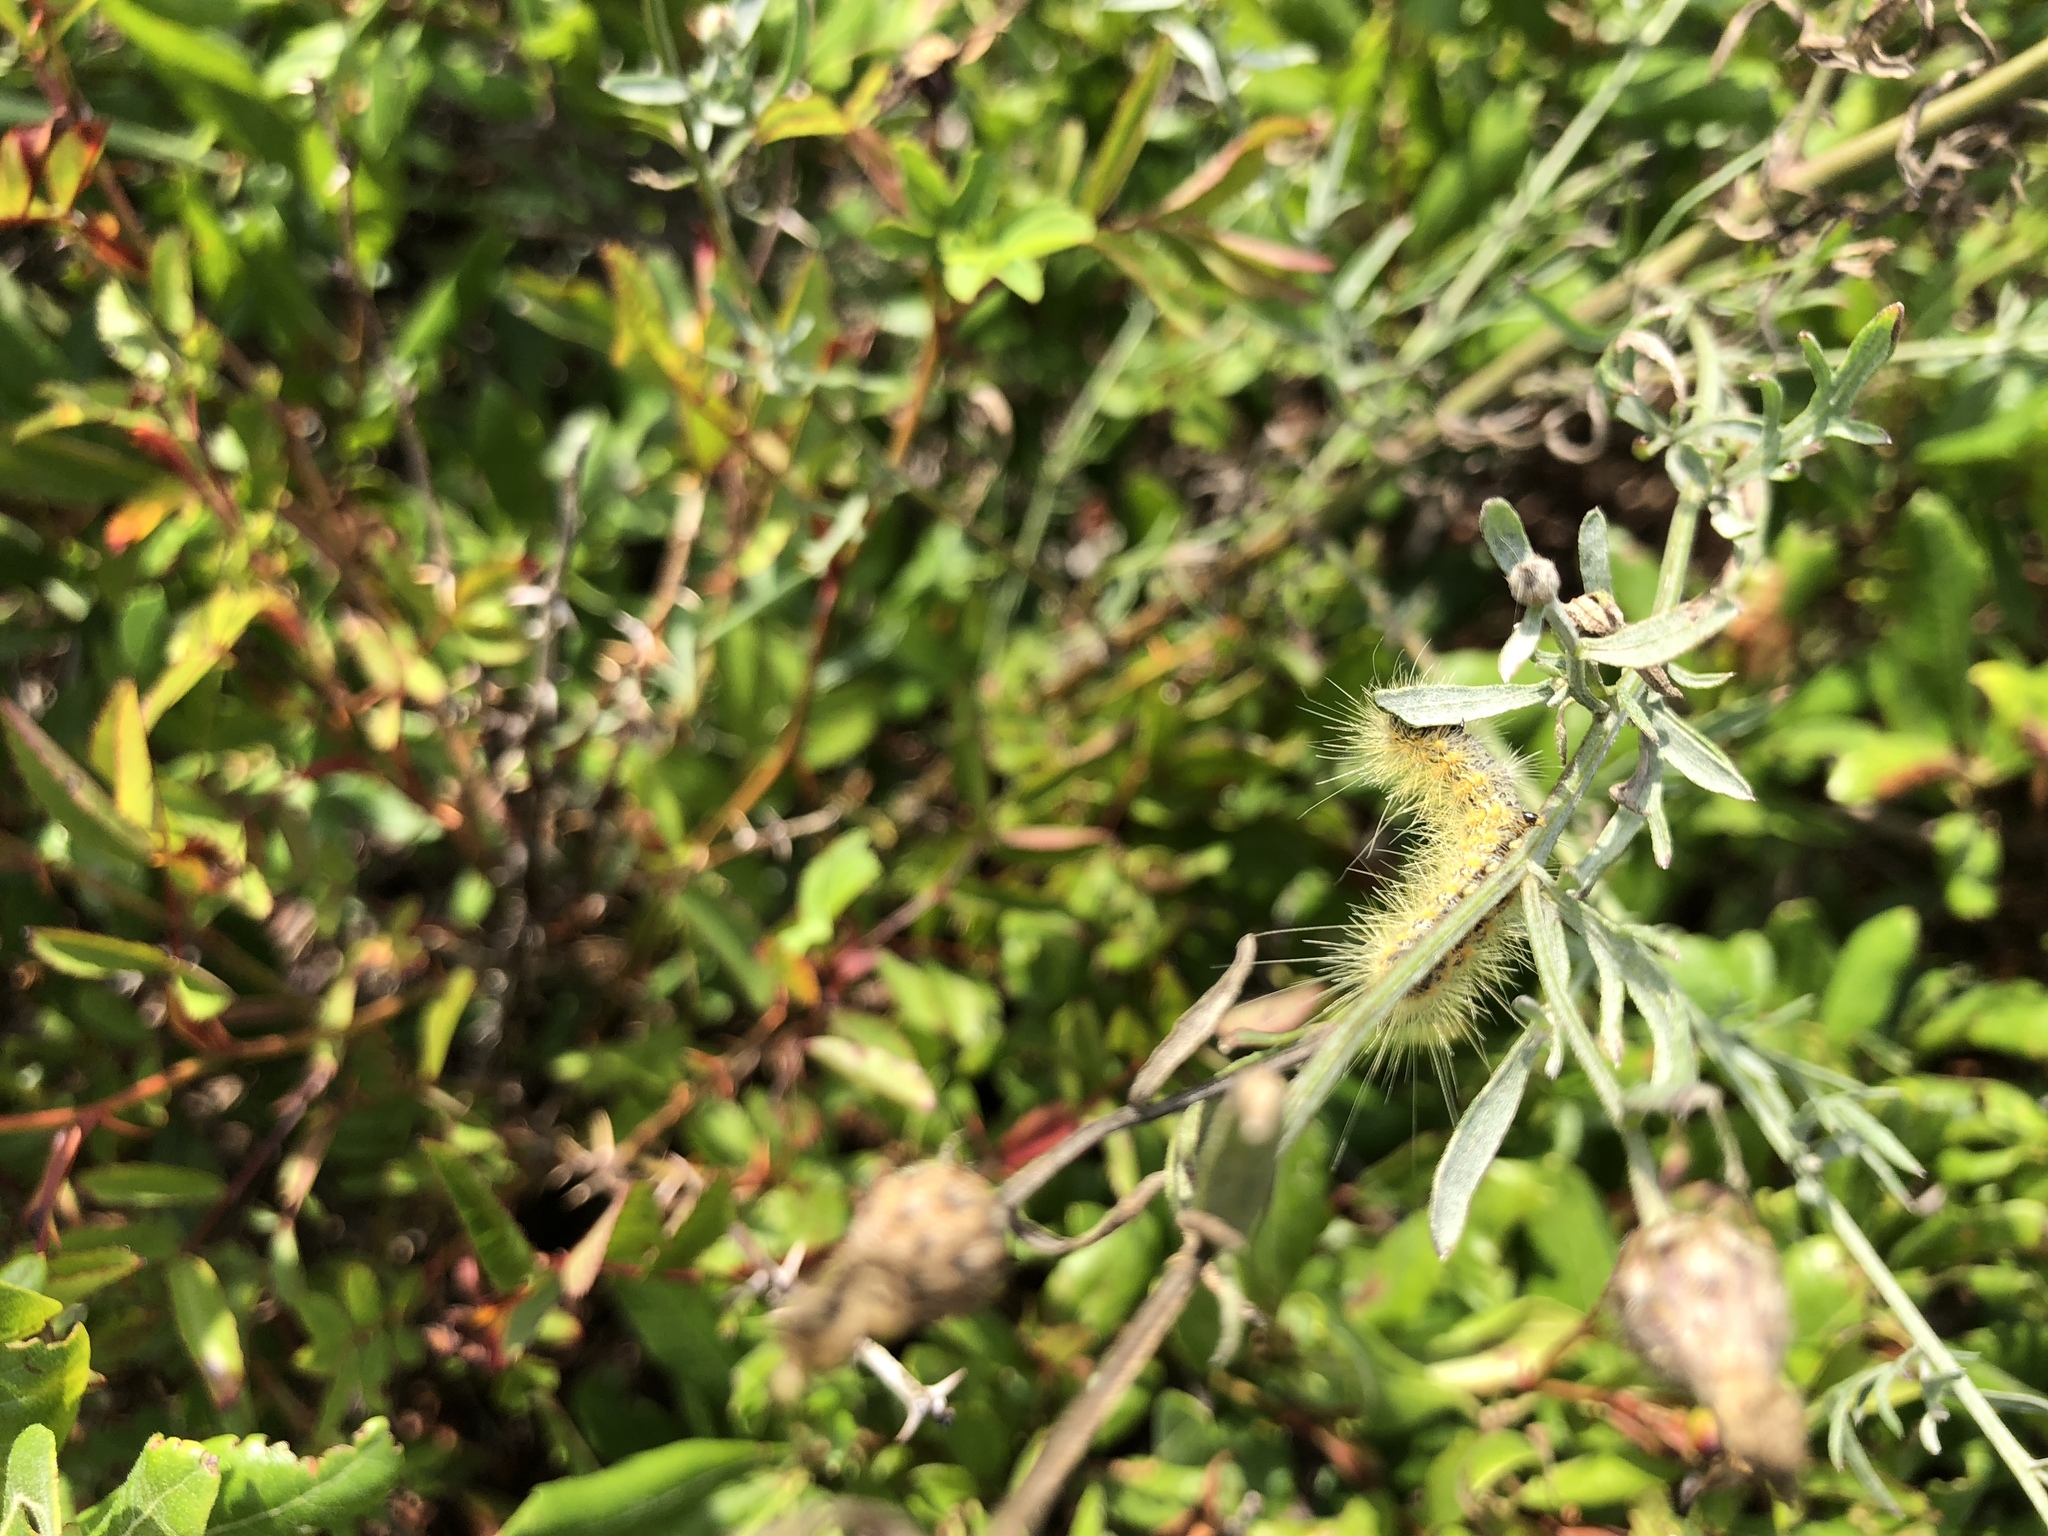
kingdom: Animalia
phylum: Arthropoda
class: Insecta
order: Lepidoptera
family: Erebidae
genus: Estigmene
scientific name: Estigmene acrea
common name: Salt marsh moth
